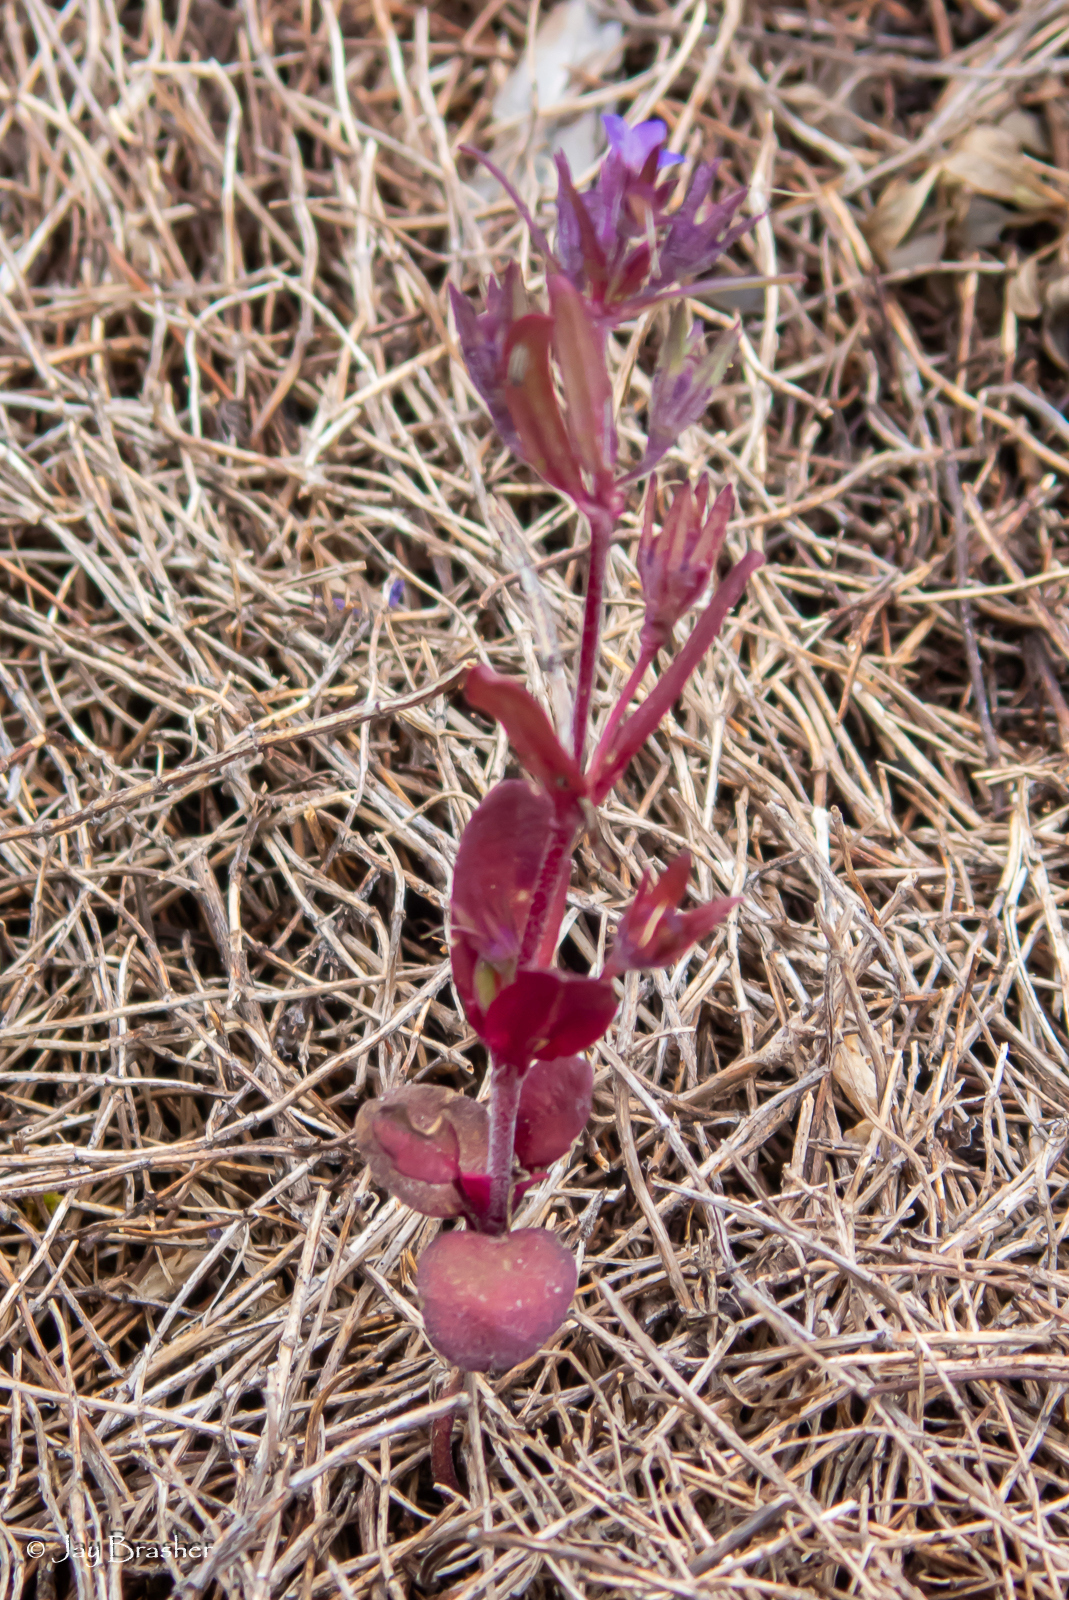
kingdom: Plantae
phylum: Tracheophyta
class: Magnoliopsida
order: Lamiales
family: Plantaginaceae
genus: Collinsia
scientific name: Collinsia parviflora
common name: Blue-lips
